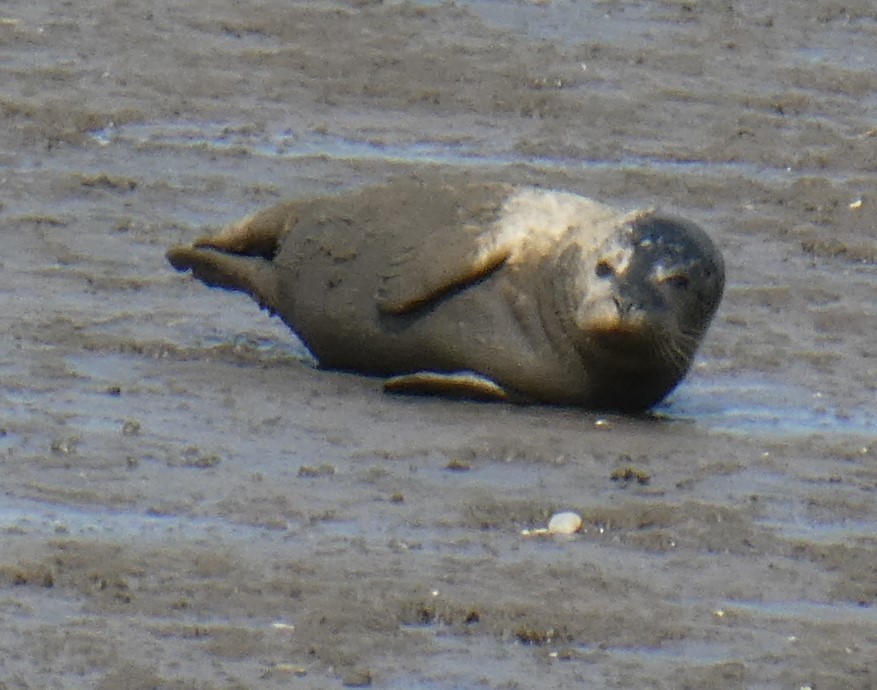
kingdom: Animalia
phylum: Chordata
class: Mammalia
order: Carnivora
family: Phocidae
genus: Phoca
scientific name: Phoca vitulina
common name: Harbor seal
